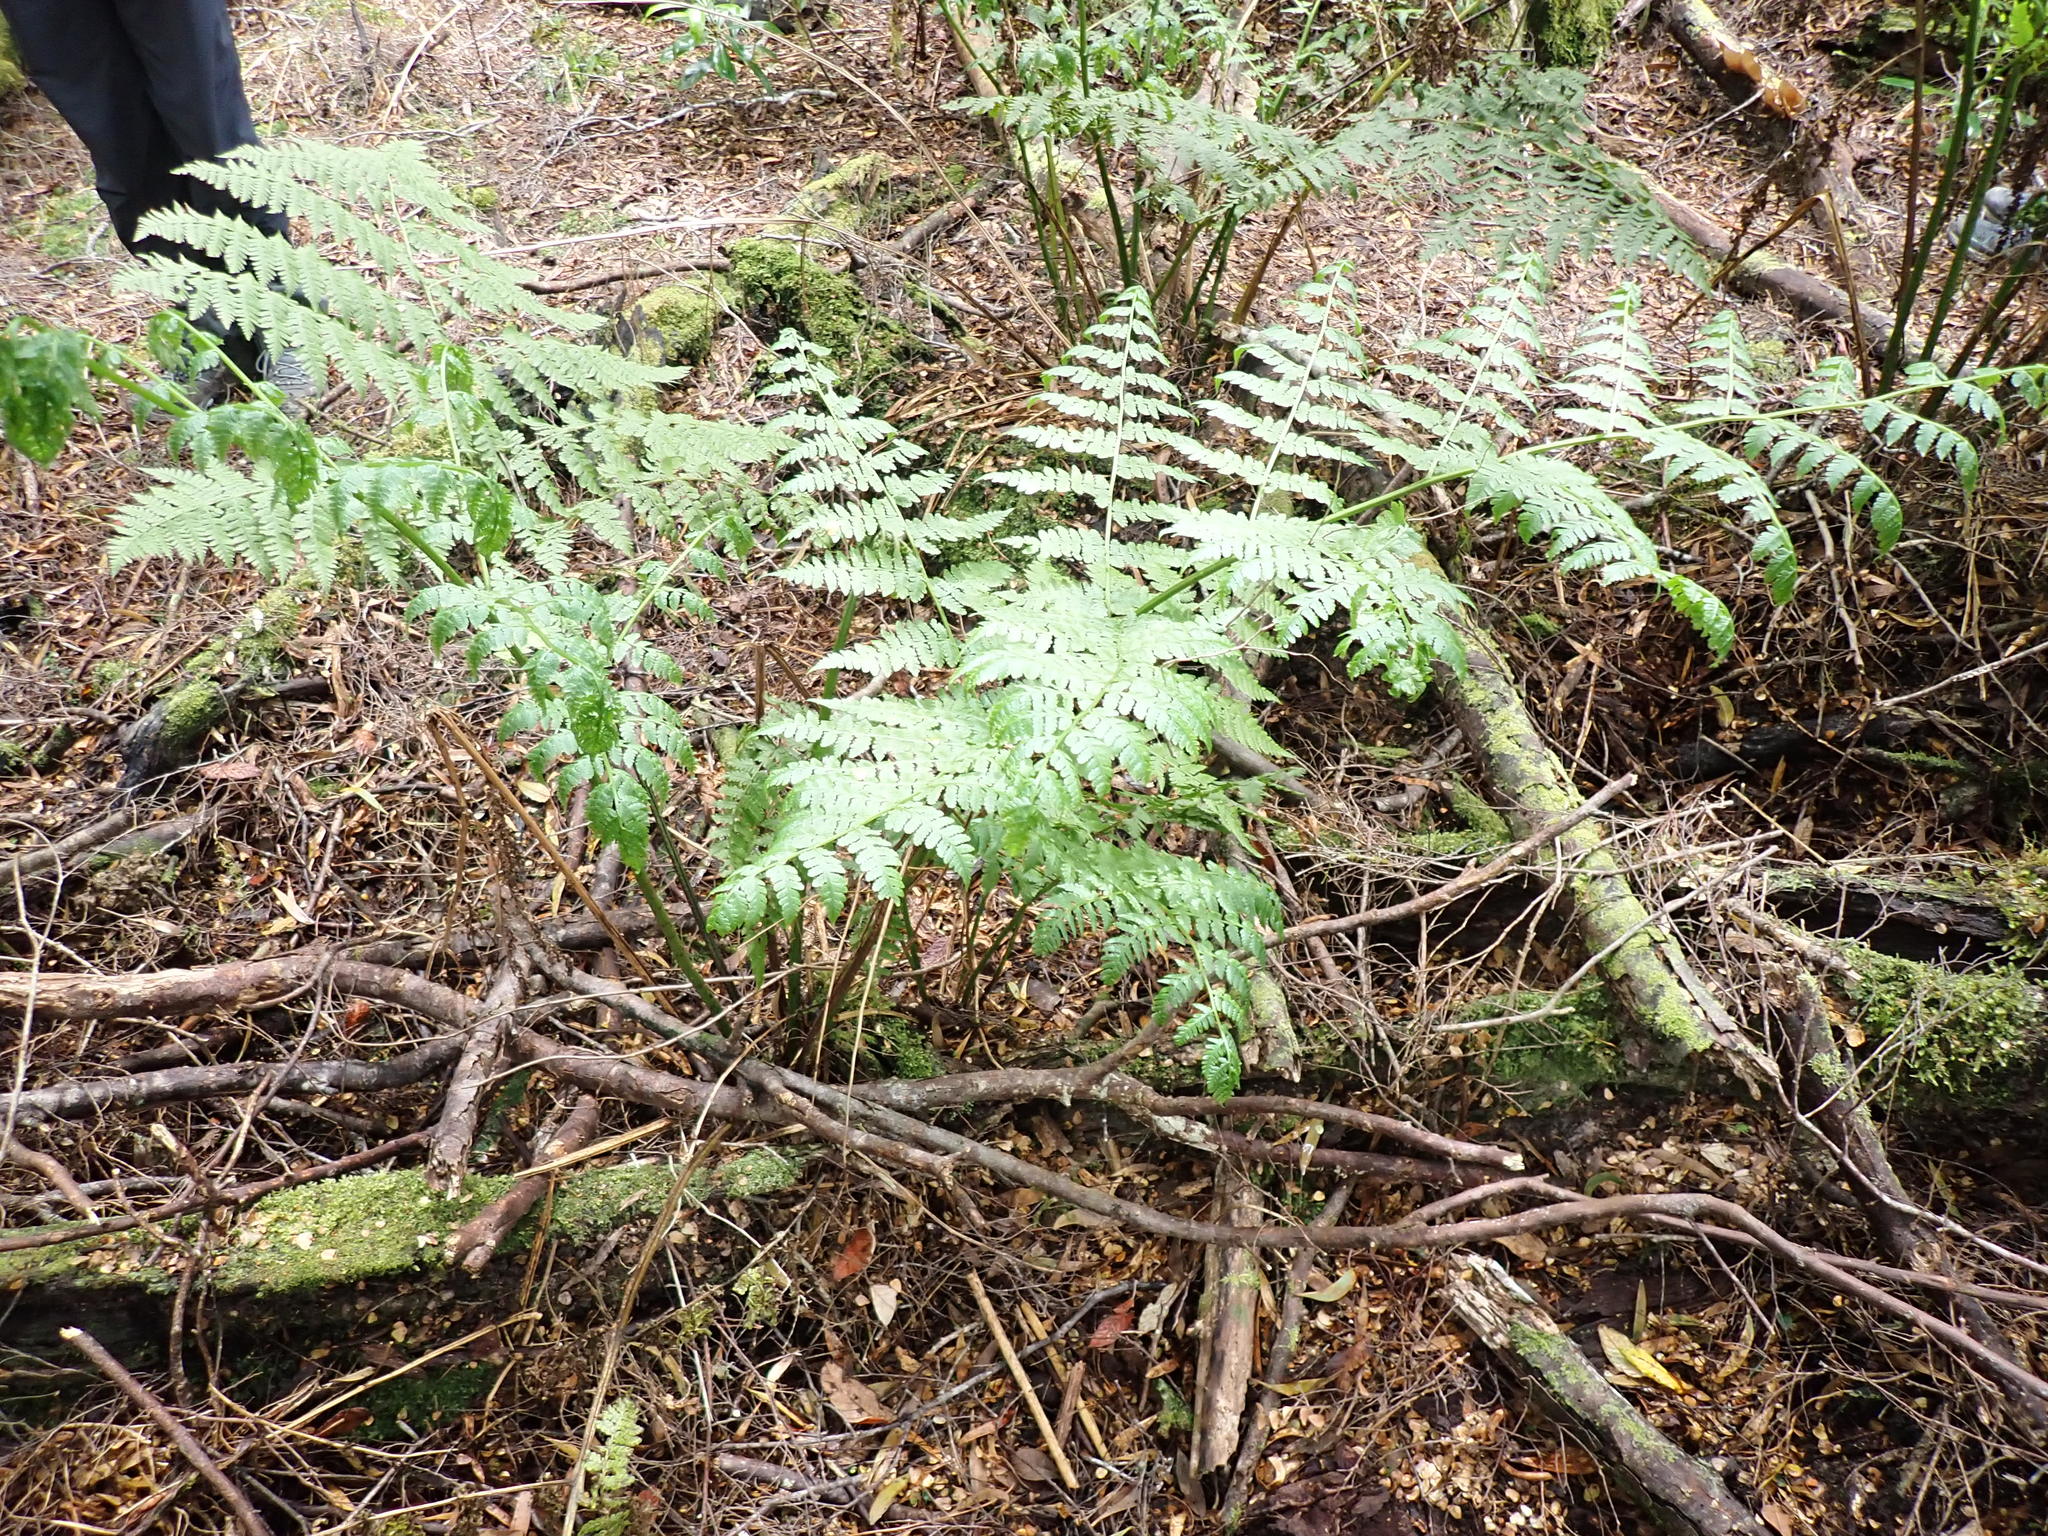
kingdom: Plantae
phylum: Tracheophyta
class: Polypodiopsida
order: Polypodiales
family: Athyriaceae
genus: Diplazium
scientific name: Diplazium australe
